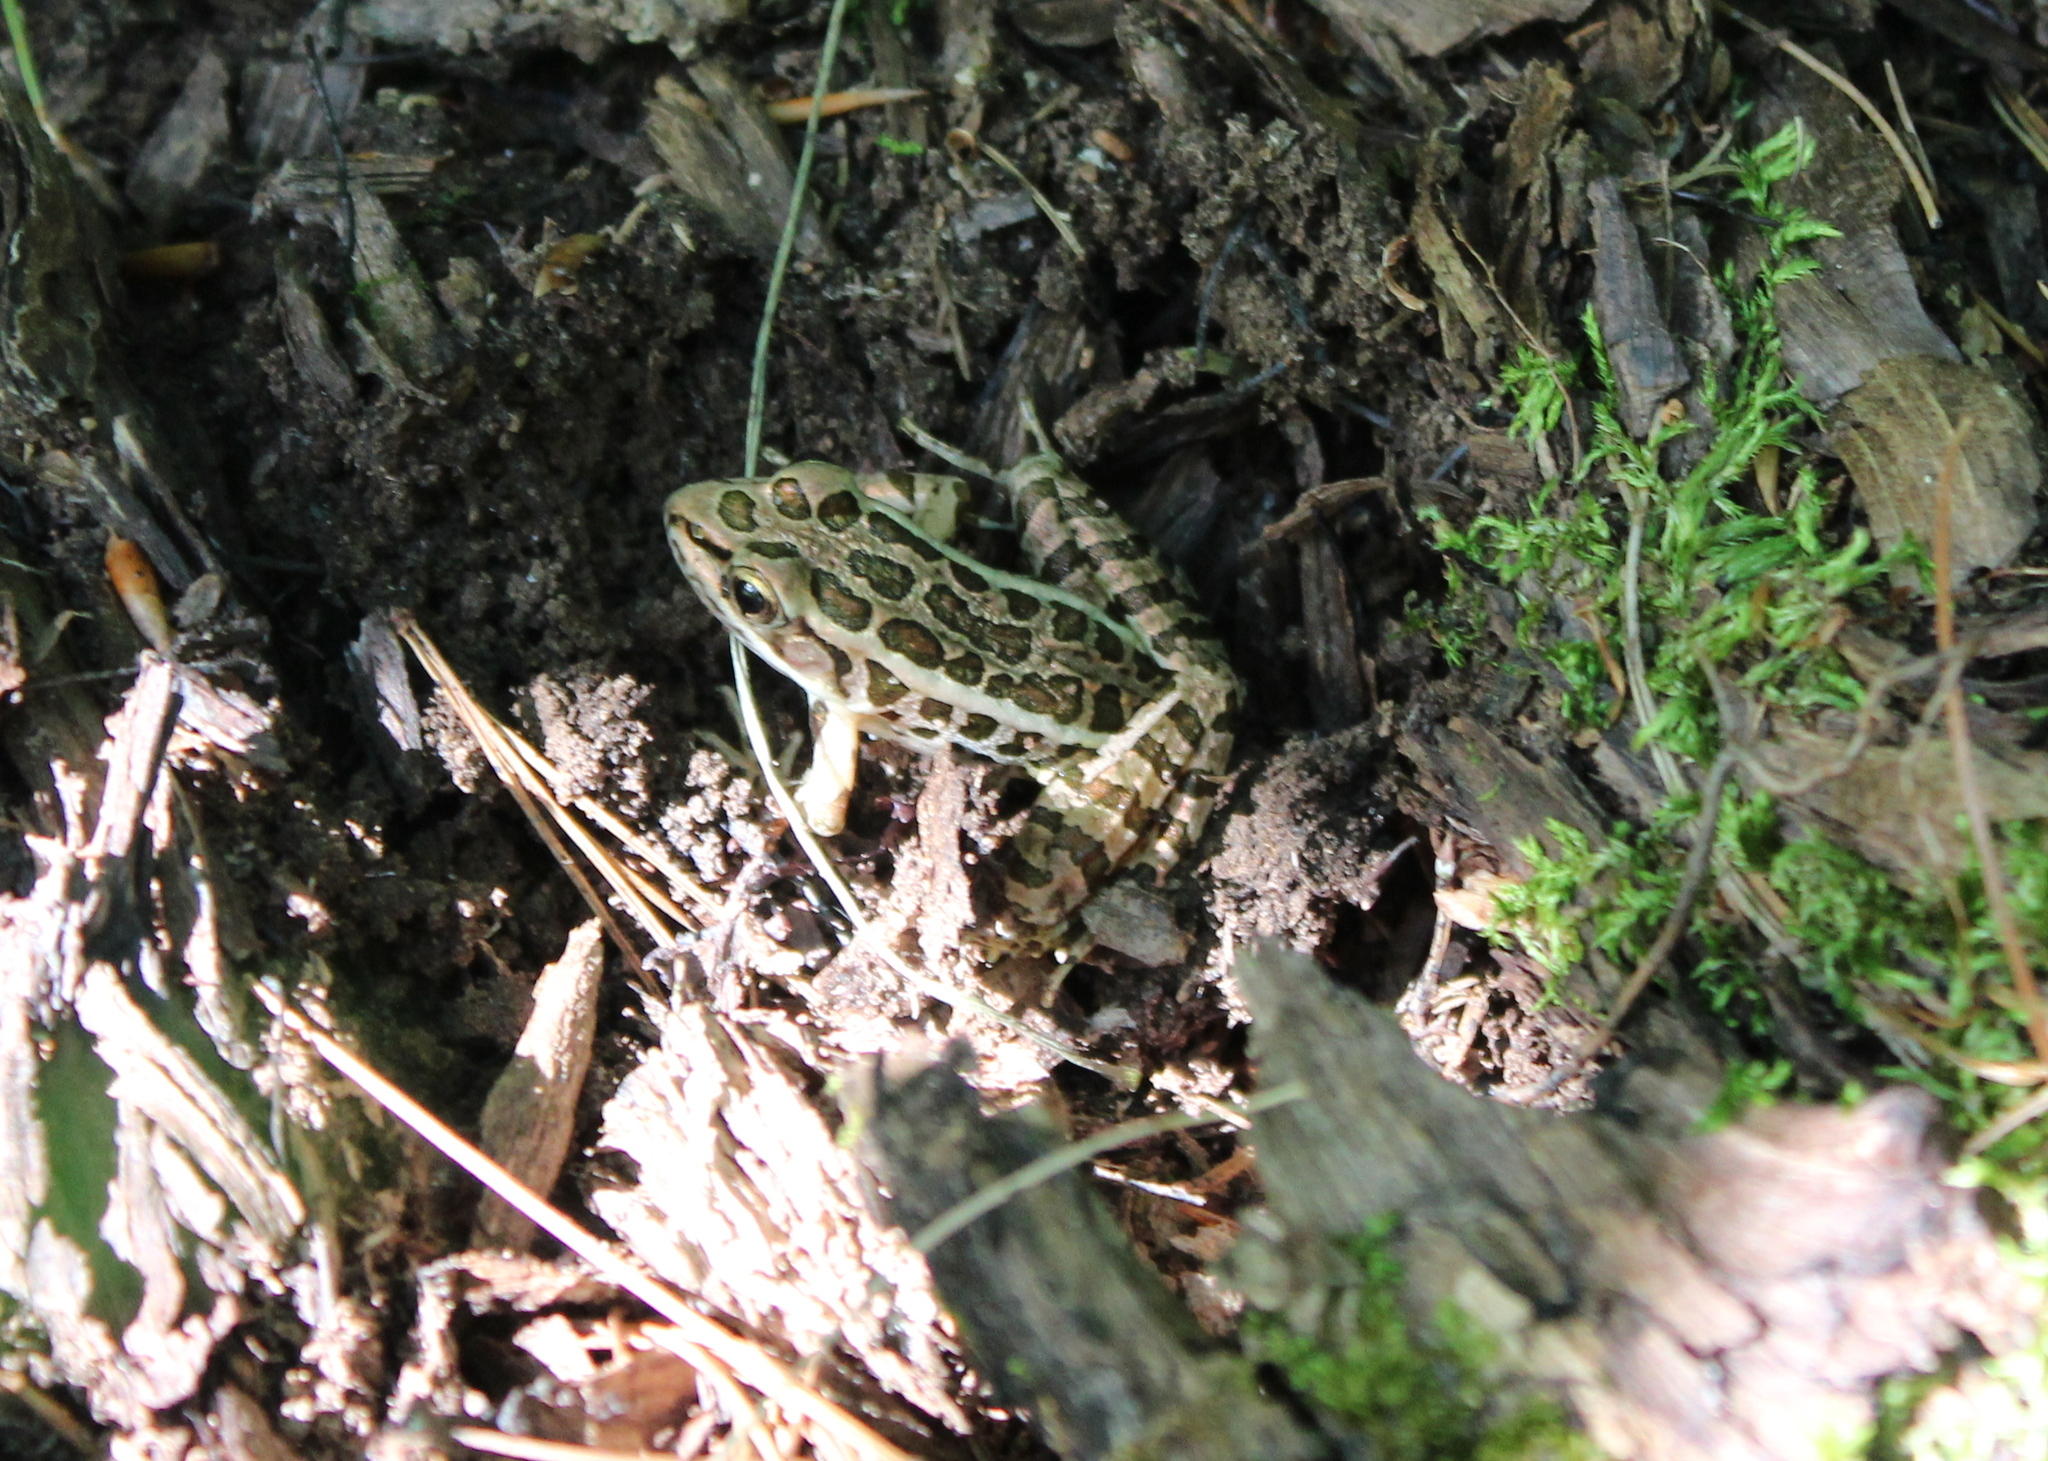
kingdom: Animalia
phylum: Chordata
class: Amphibia
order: Anura
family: Ranidae
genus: Lithobates
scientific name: Lithobates palustris
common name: Pickerel frog
